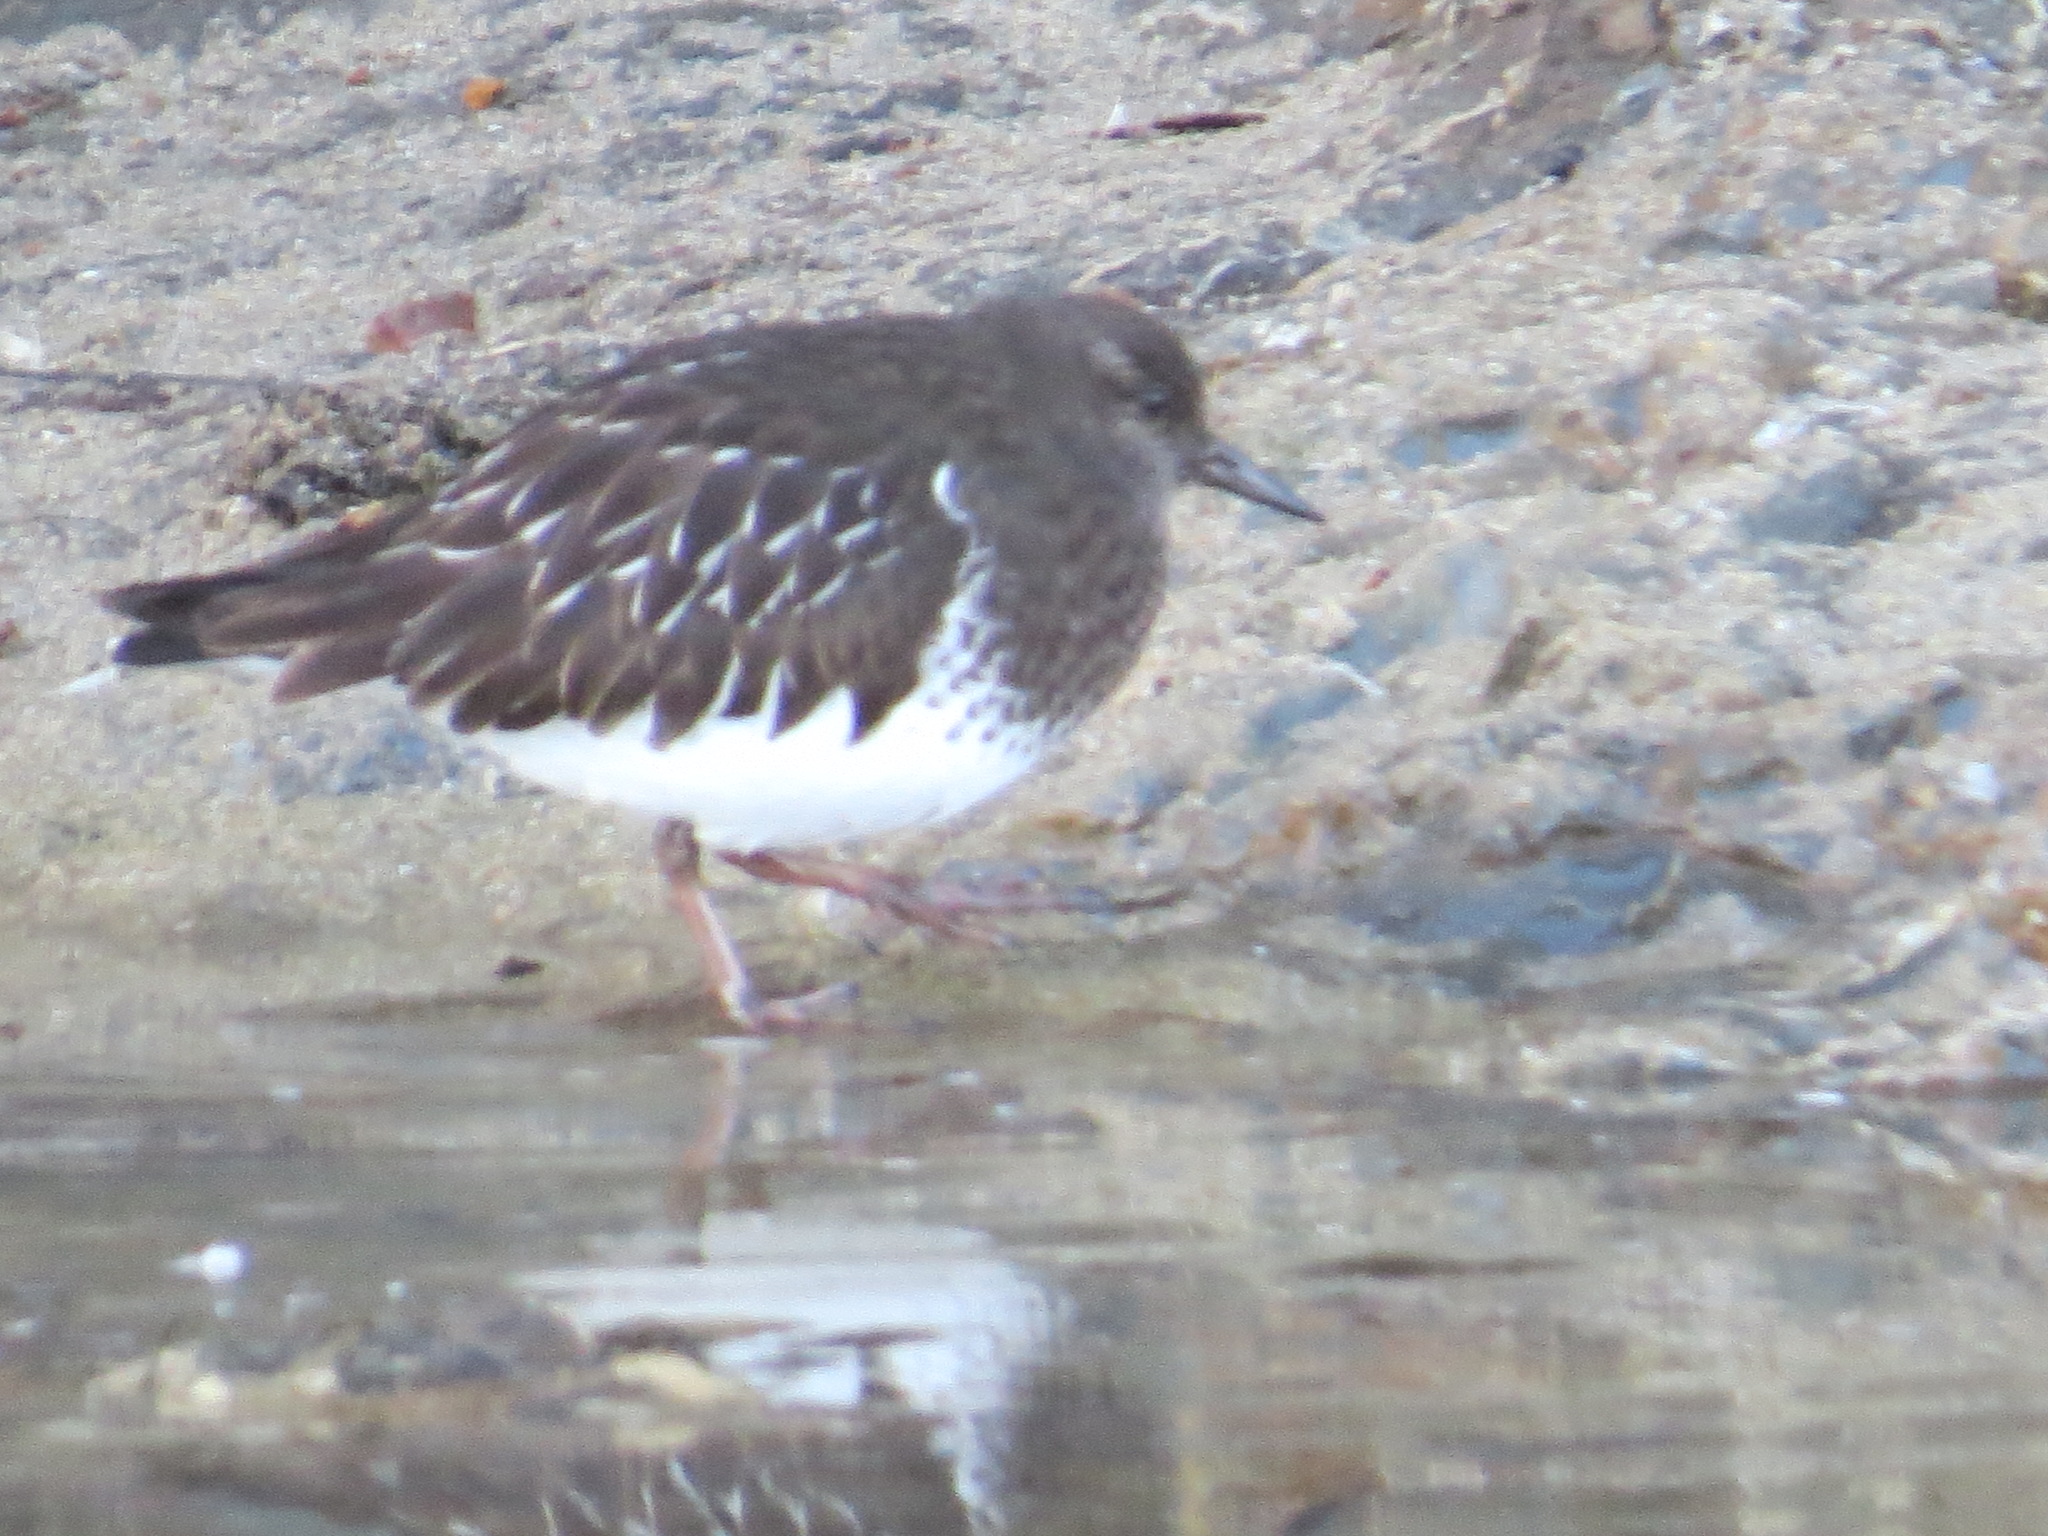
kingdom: Animalia
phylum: Chordata
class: Aves
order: Charadriiformes
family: Scolopacidae
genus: Arenaria
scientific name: Arenaria melanocephala
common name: Black turnstone
